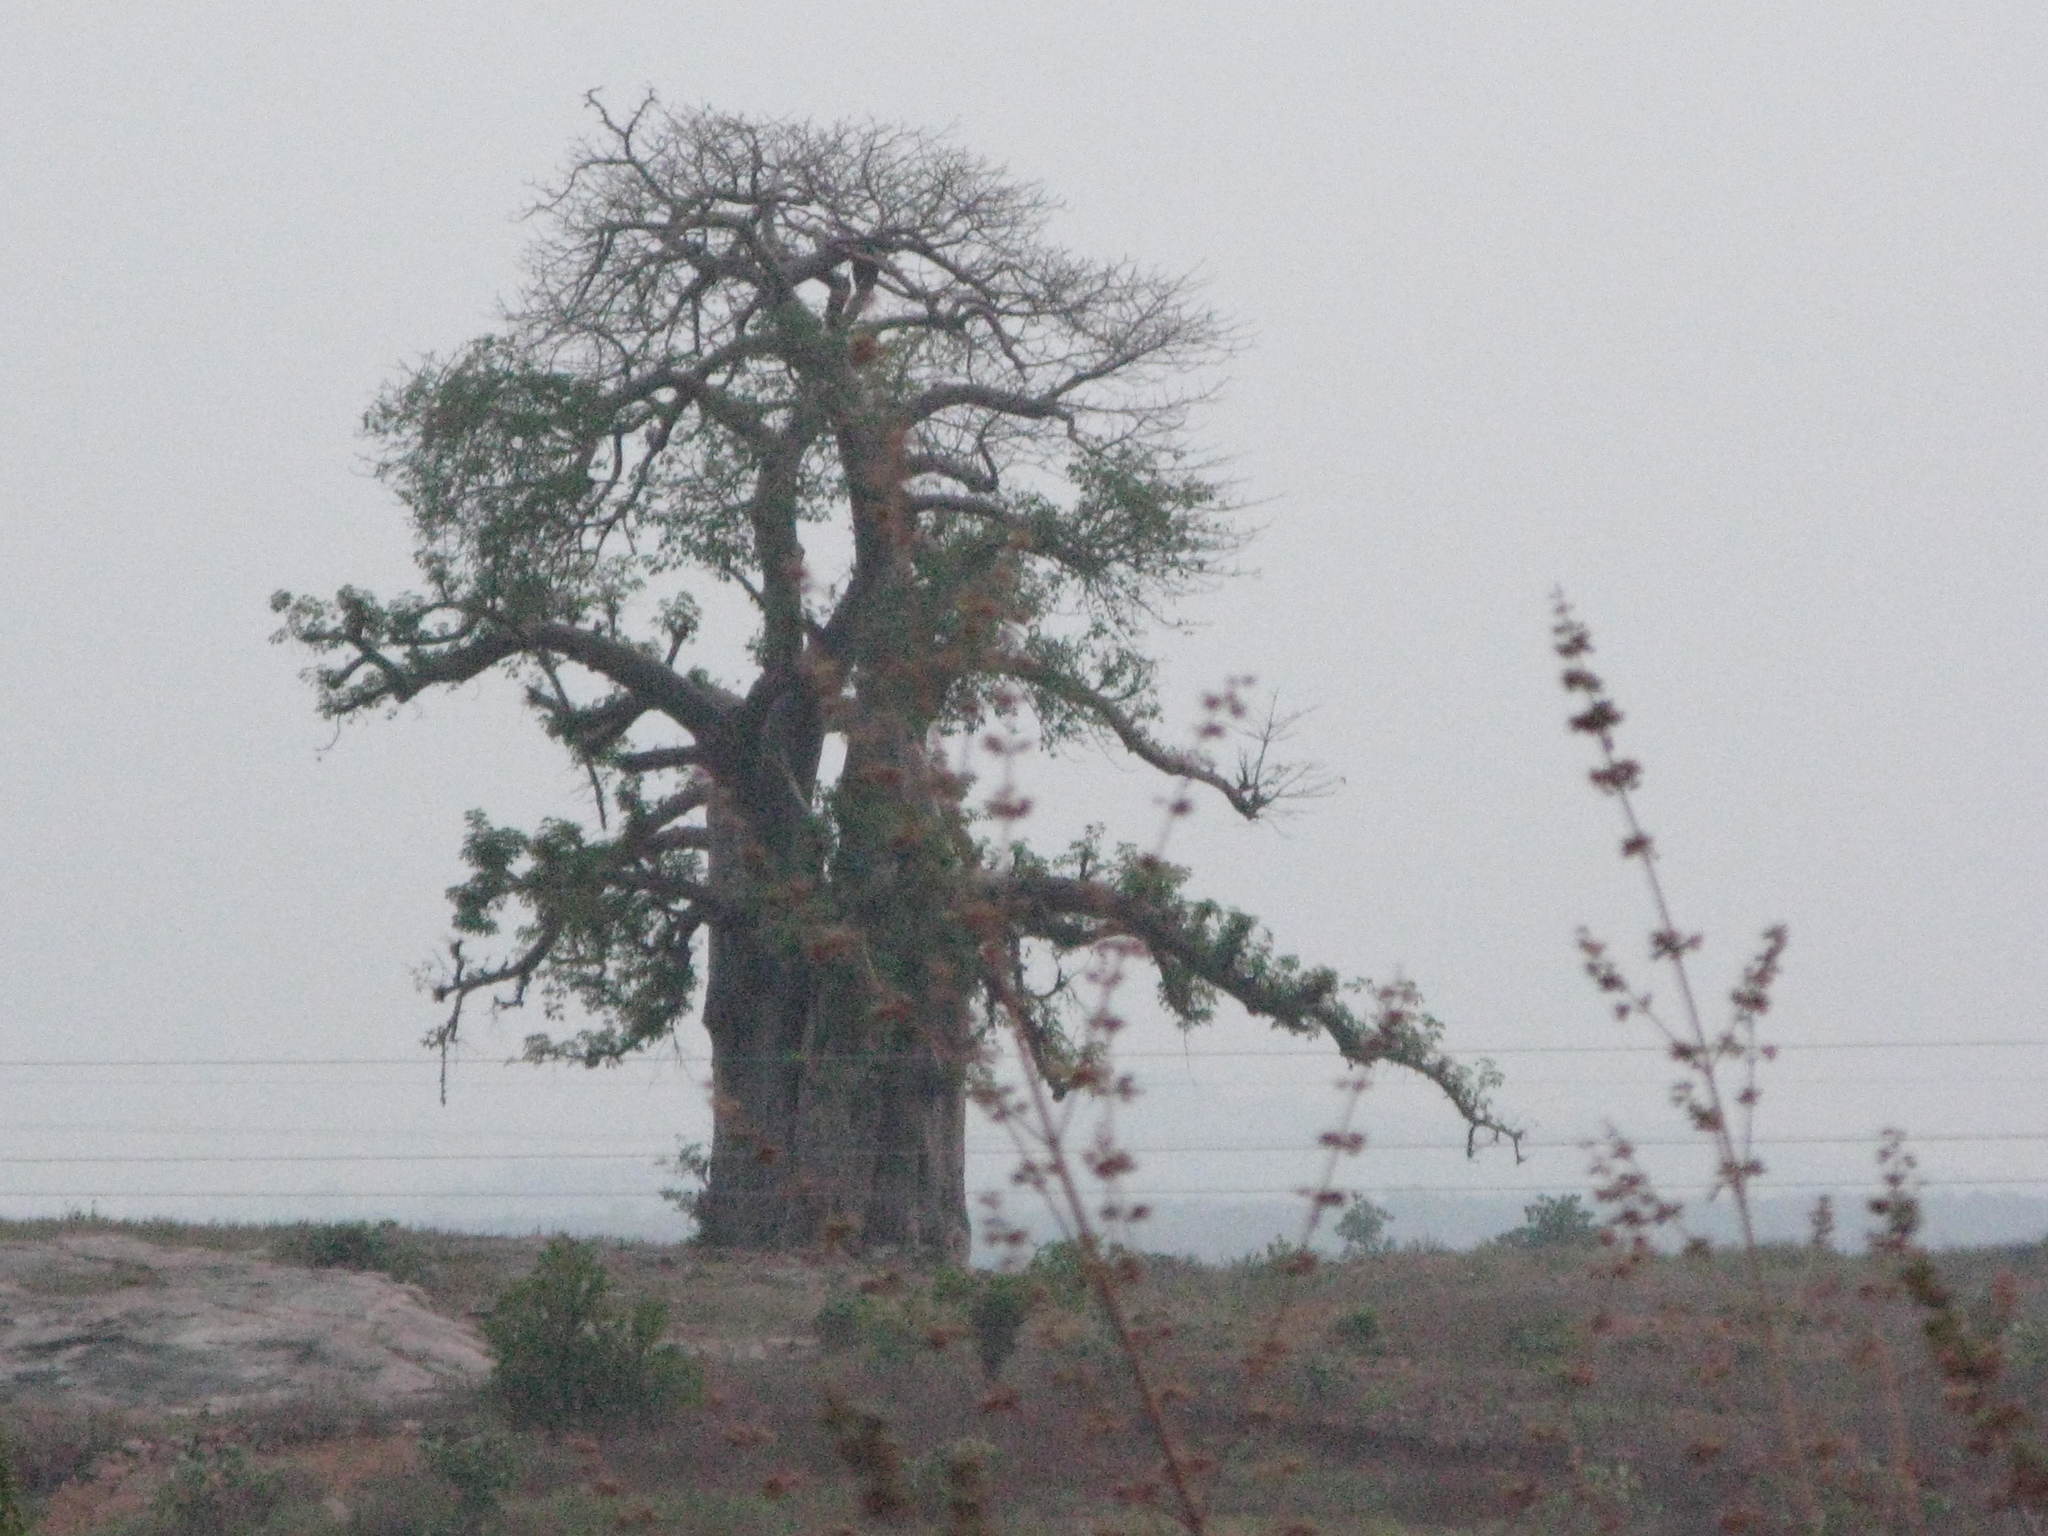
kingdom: Plantae
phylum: Tracheophyta
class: Magnoliopsida
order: Malvales
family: Malvaceae
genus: Adansonia
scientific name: Adansonia digitata
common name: Dead-rat-tree
